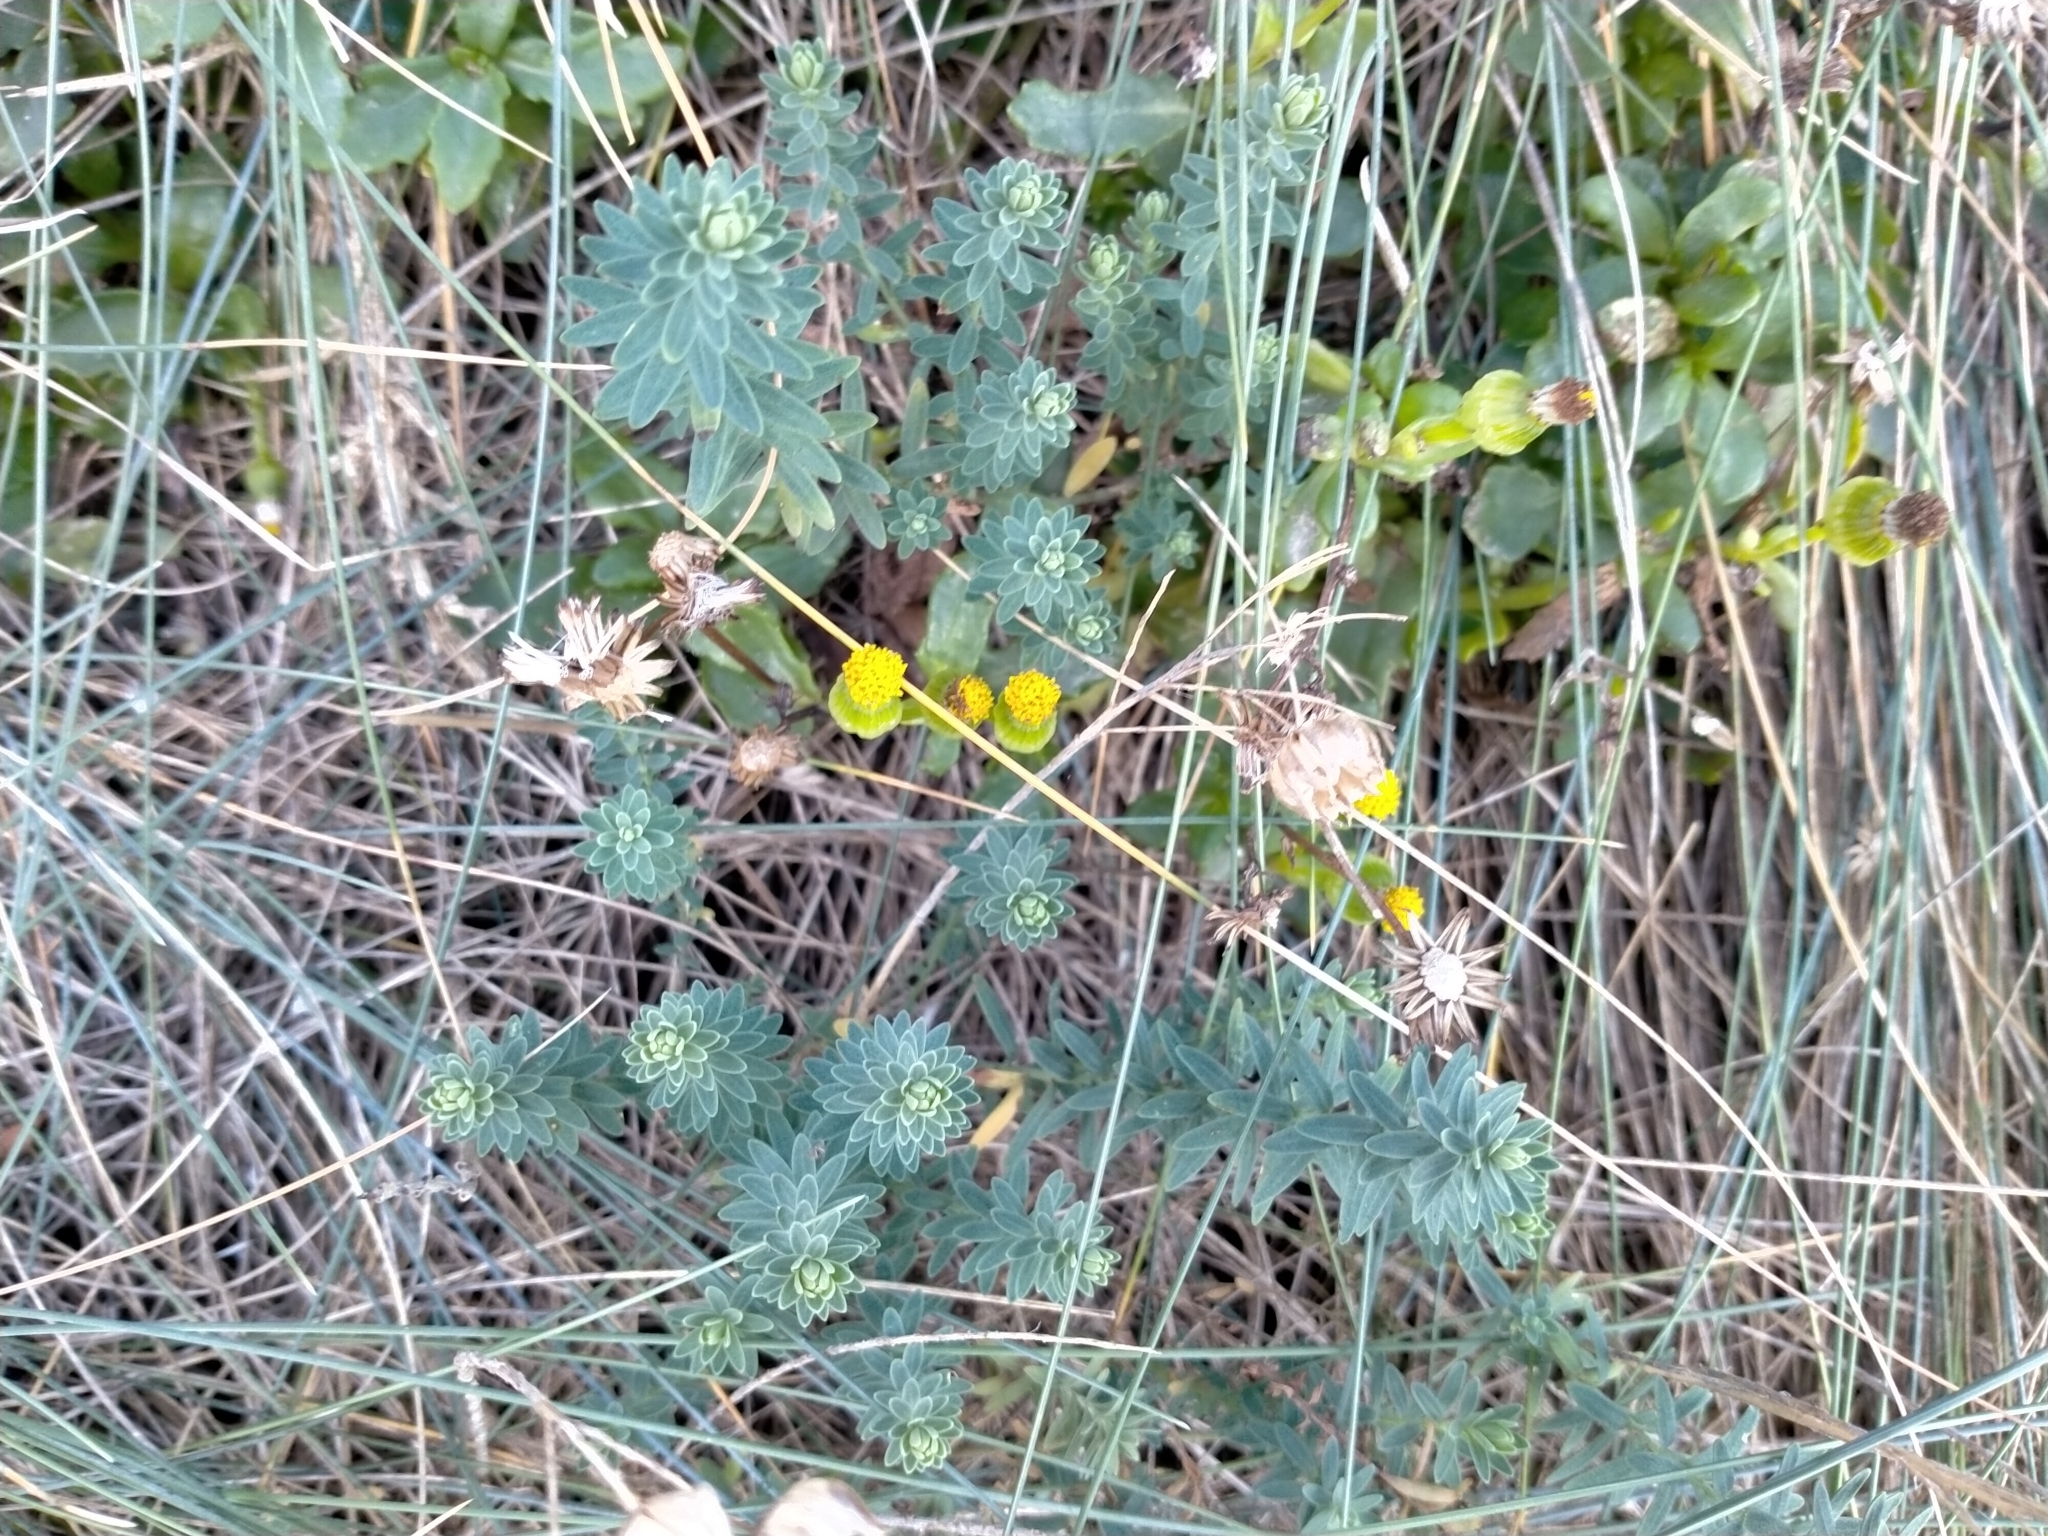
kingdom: Plantae
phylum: Tracheophyta
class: Magnoliopsida
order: Malpighiales
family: Linaceae
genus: Linum
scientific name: Linum monogynum
